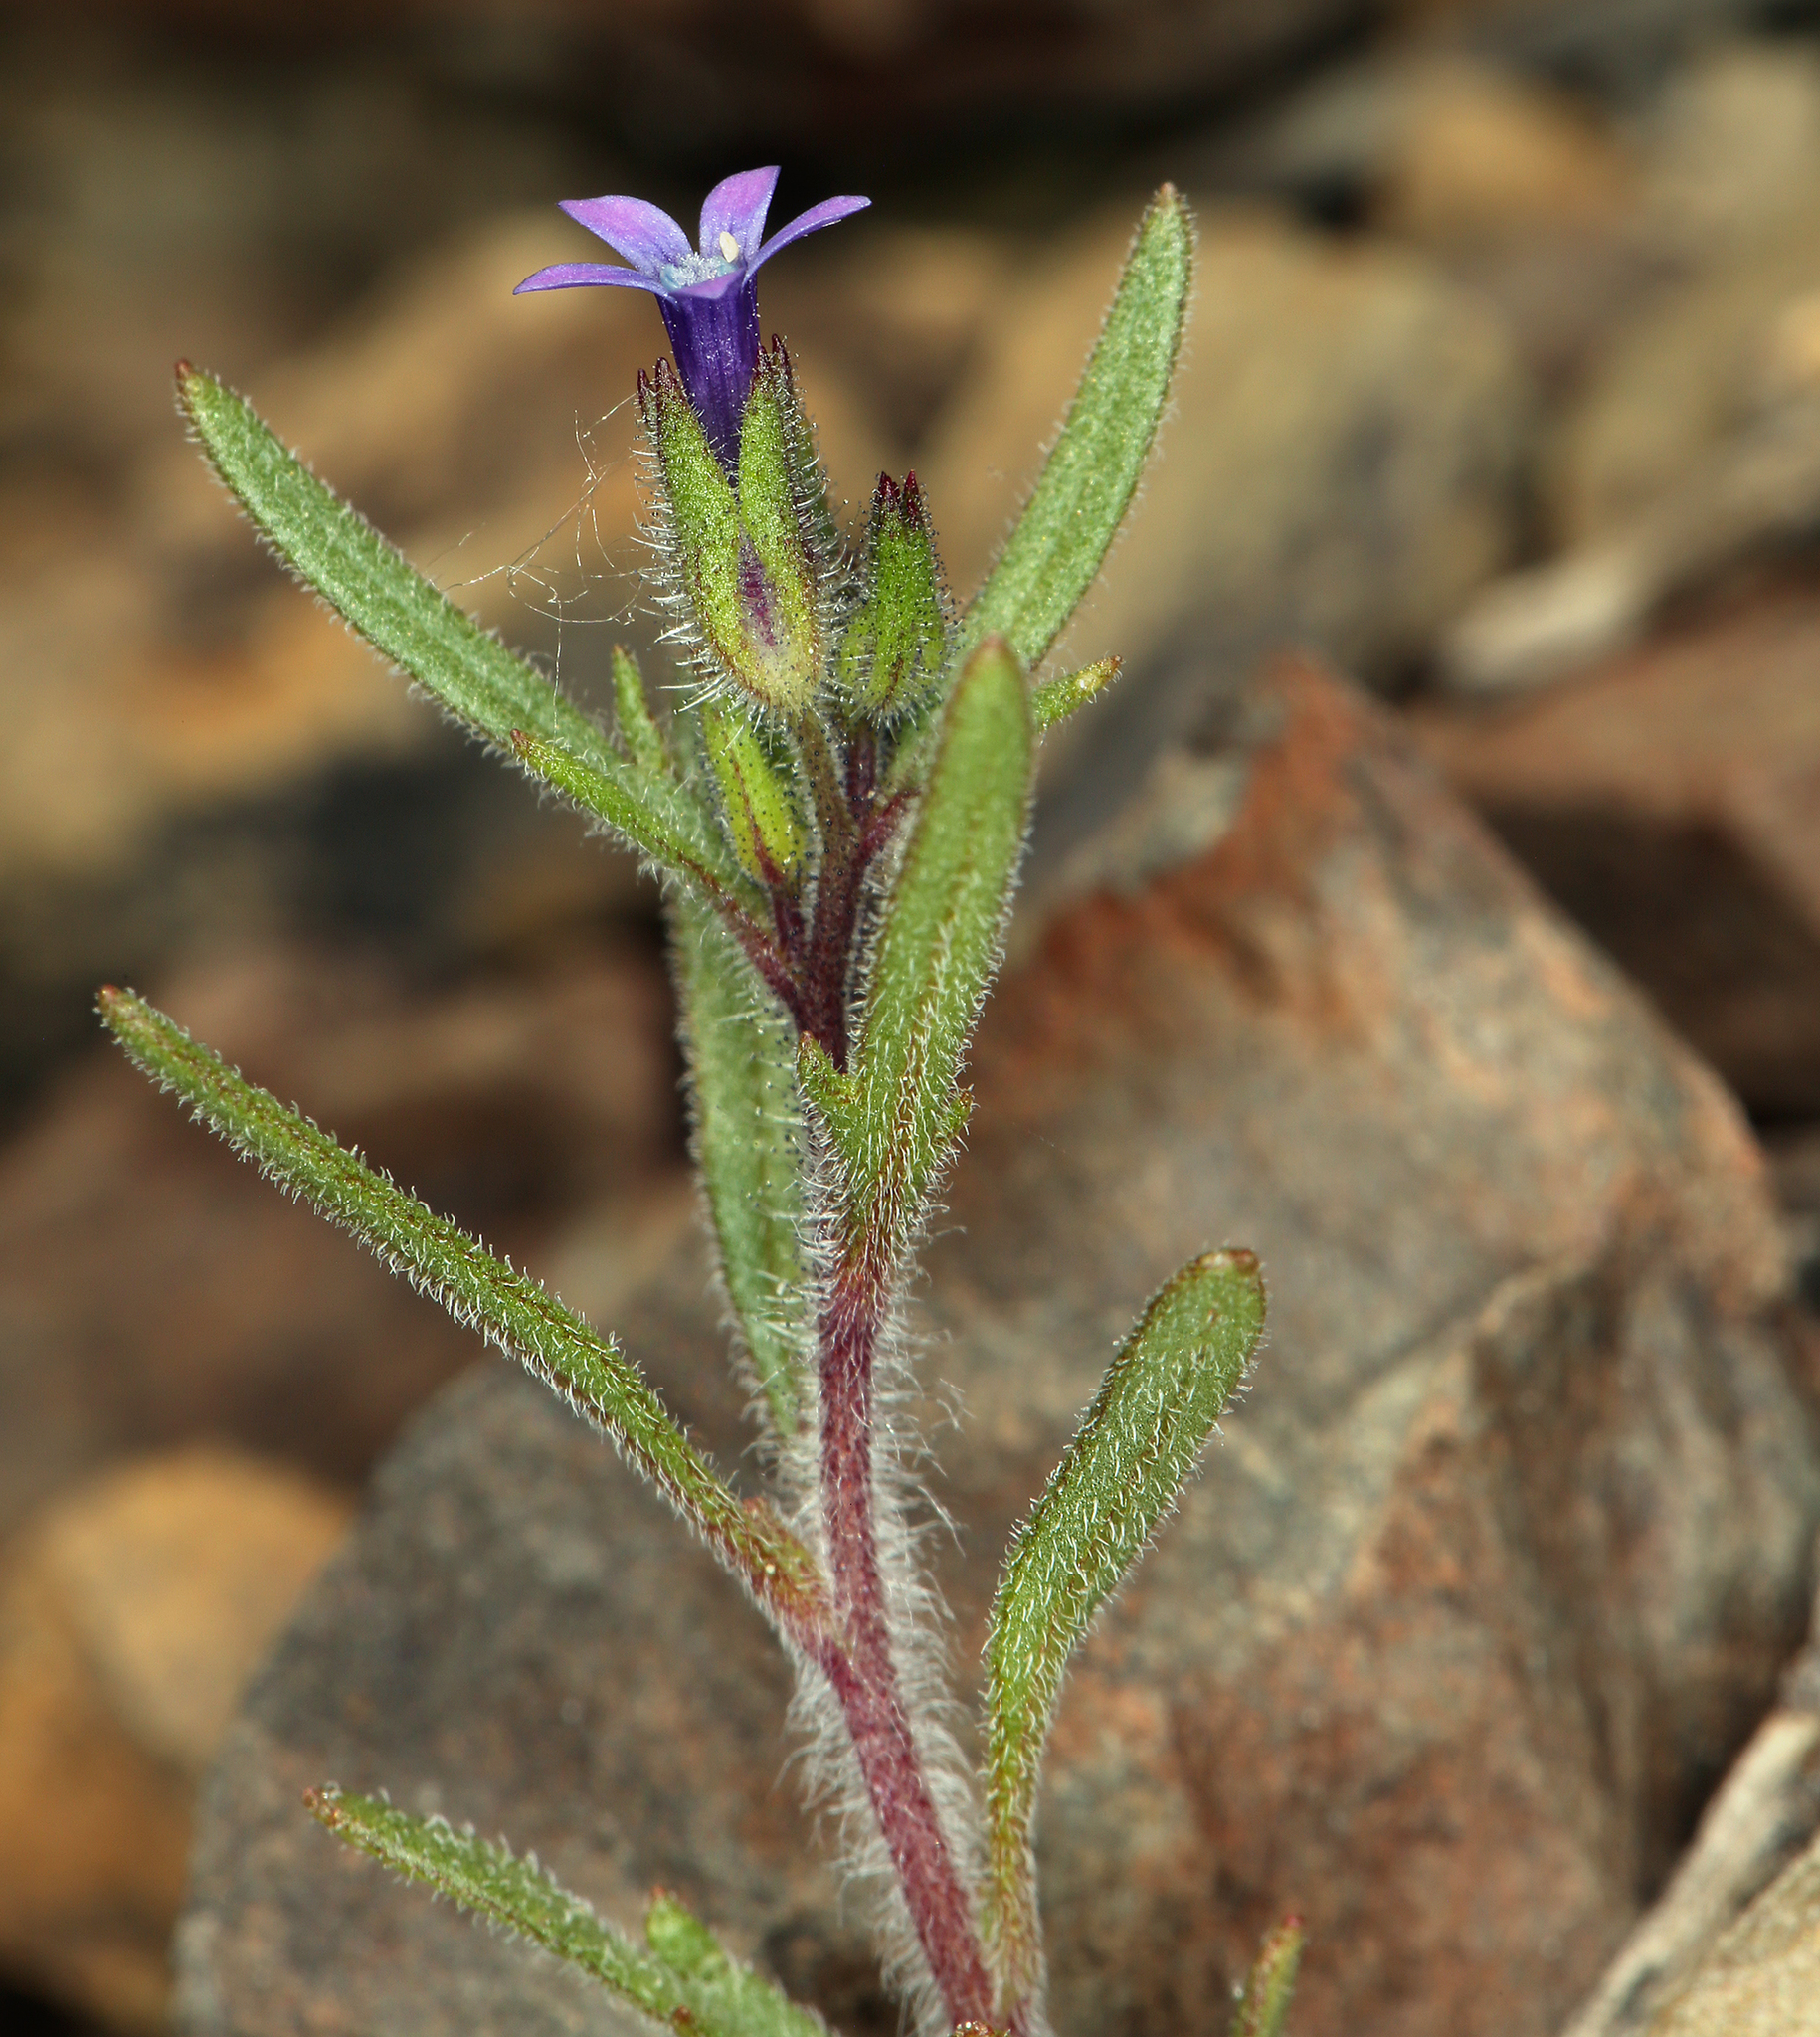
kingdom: Plantae
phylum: Tracheophyta
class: Magnoliopsida
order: Ericales
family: Polemoniaceae
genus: Allophyllum
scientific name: Allophyllum gilioides
